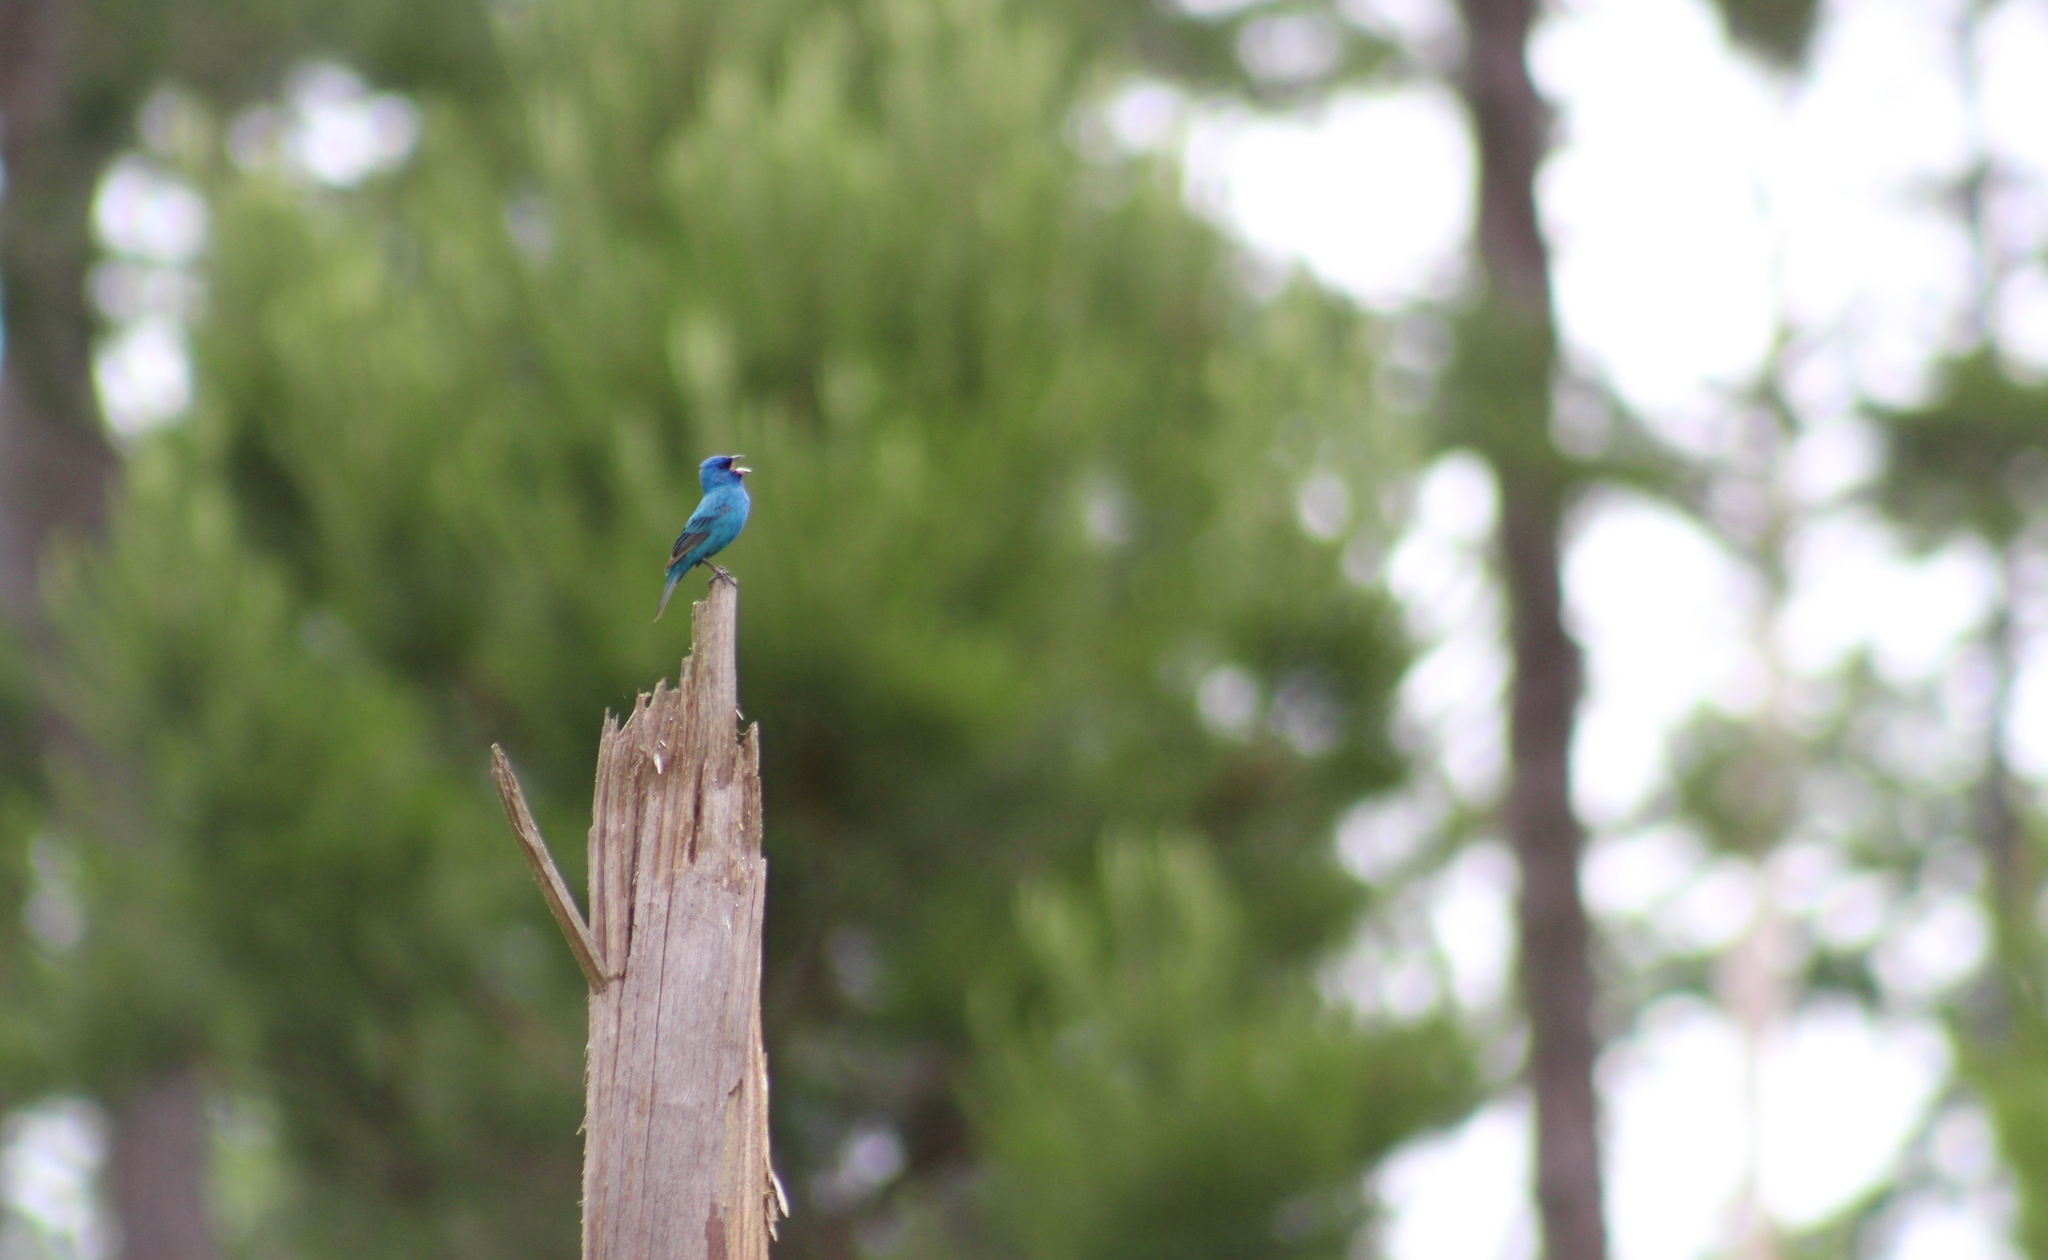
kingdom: Animalia
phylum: Chordata
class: Aves
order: Passeriformes
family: Cardinalidae
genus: Passerina
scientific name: Passerina cyanea
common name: Indigo bunting
